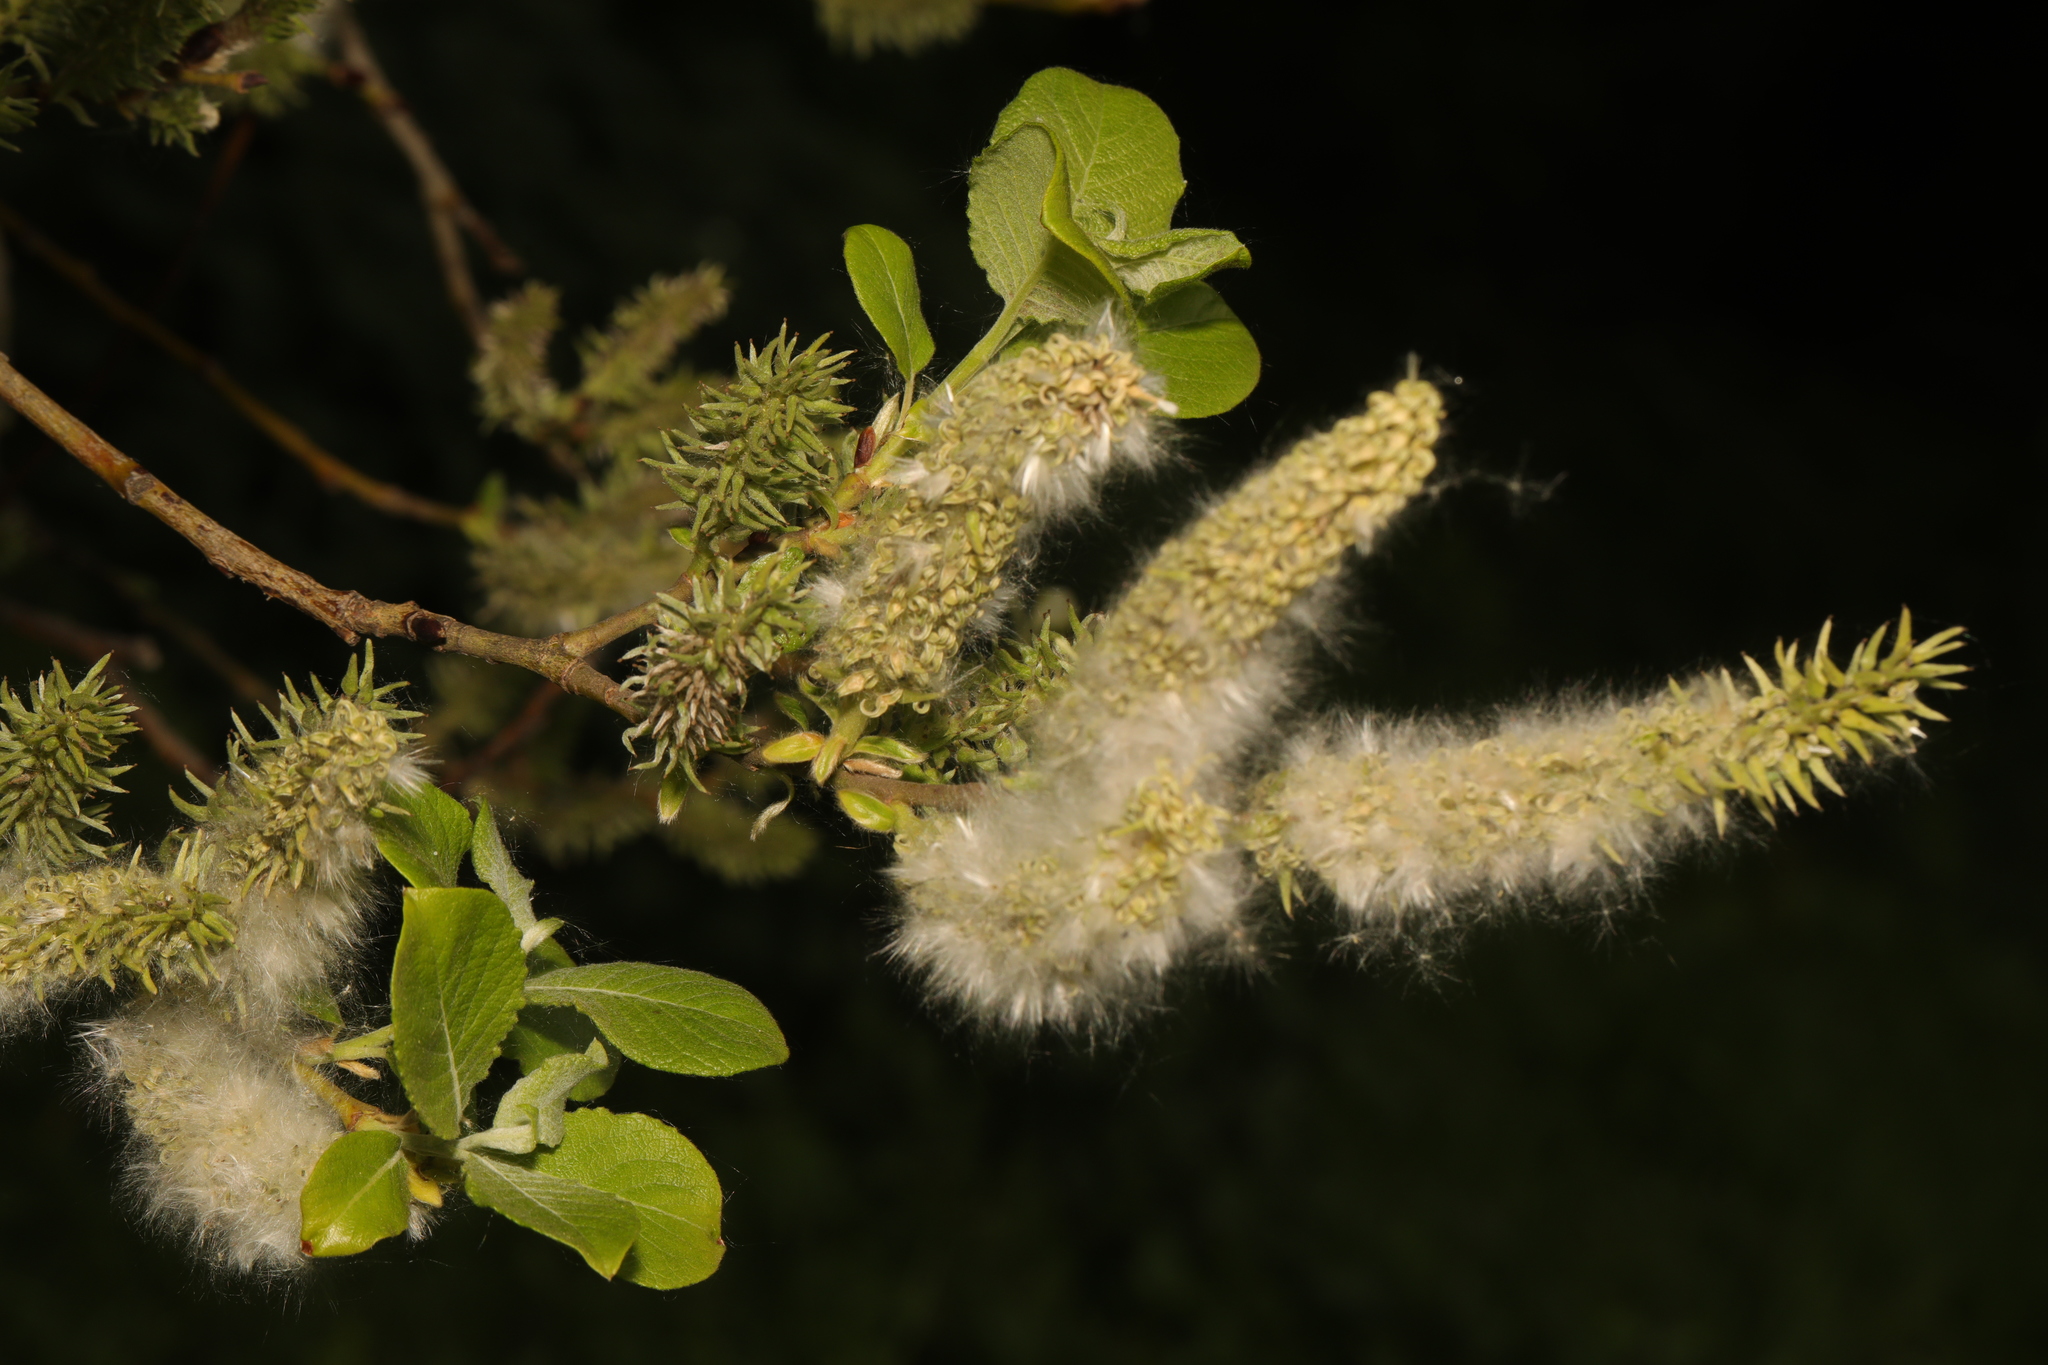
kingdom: Plantae
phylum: Tracheophyta
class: Magnoliopsida
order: Malpighiales
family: Salicaceae
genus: Salix
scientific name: Salix caprea
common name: Goat willow
